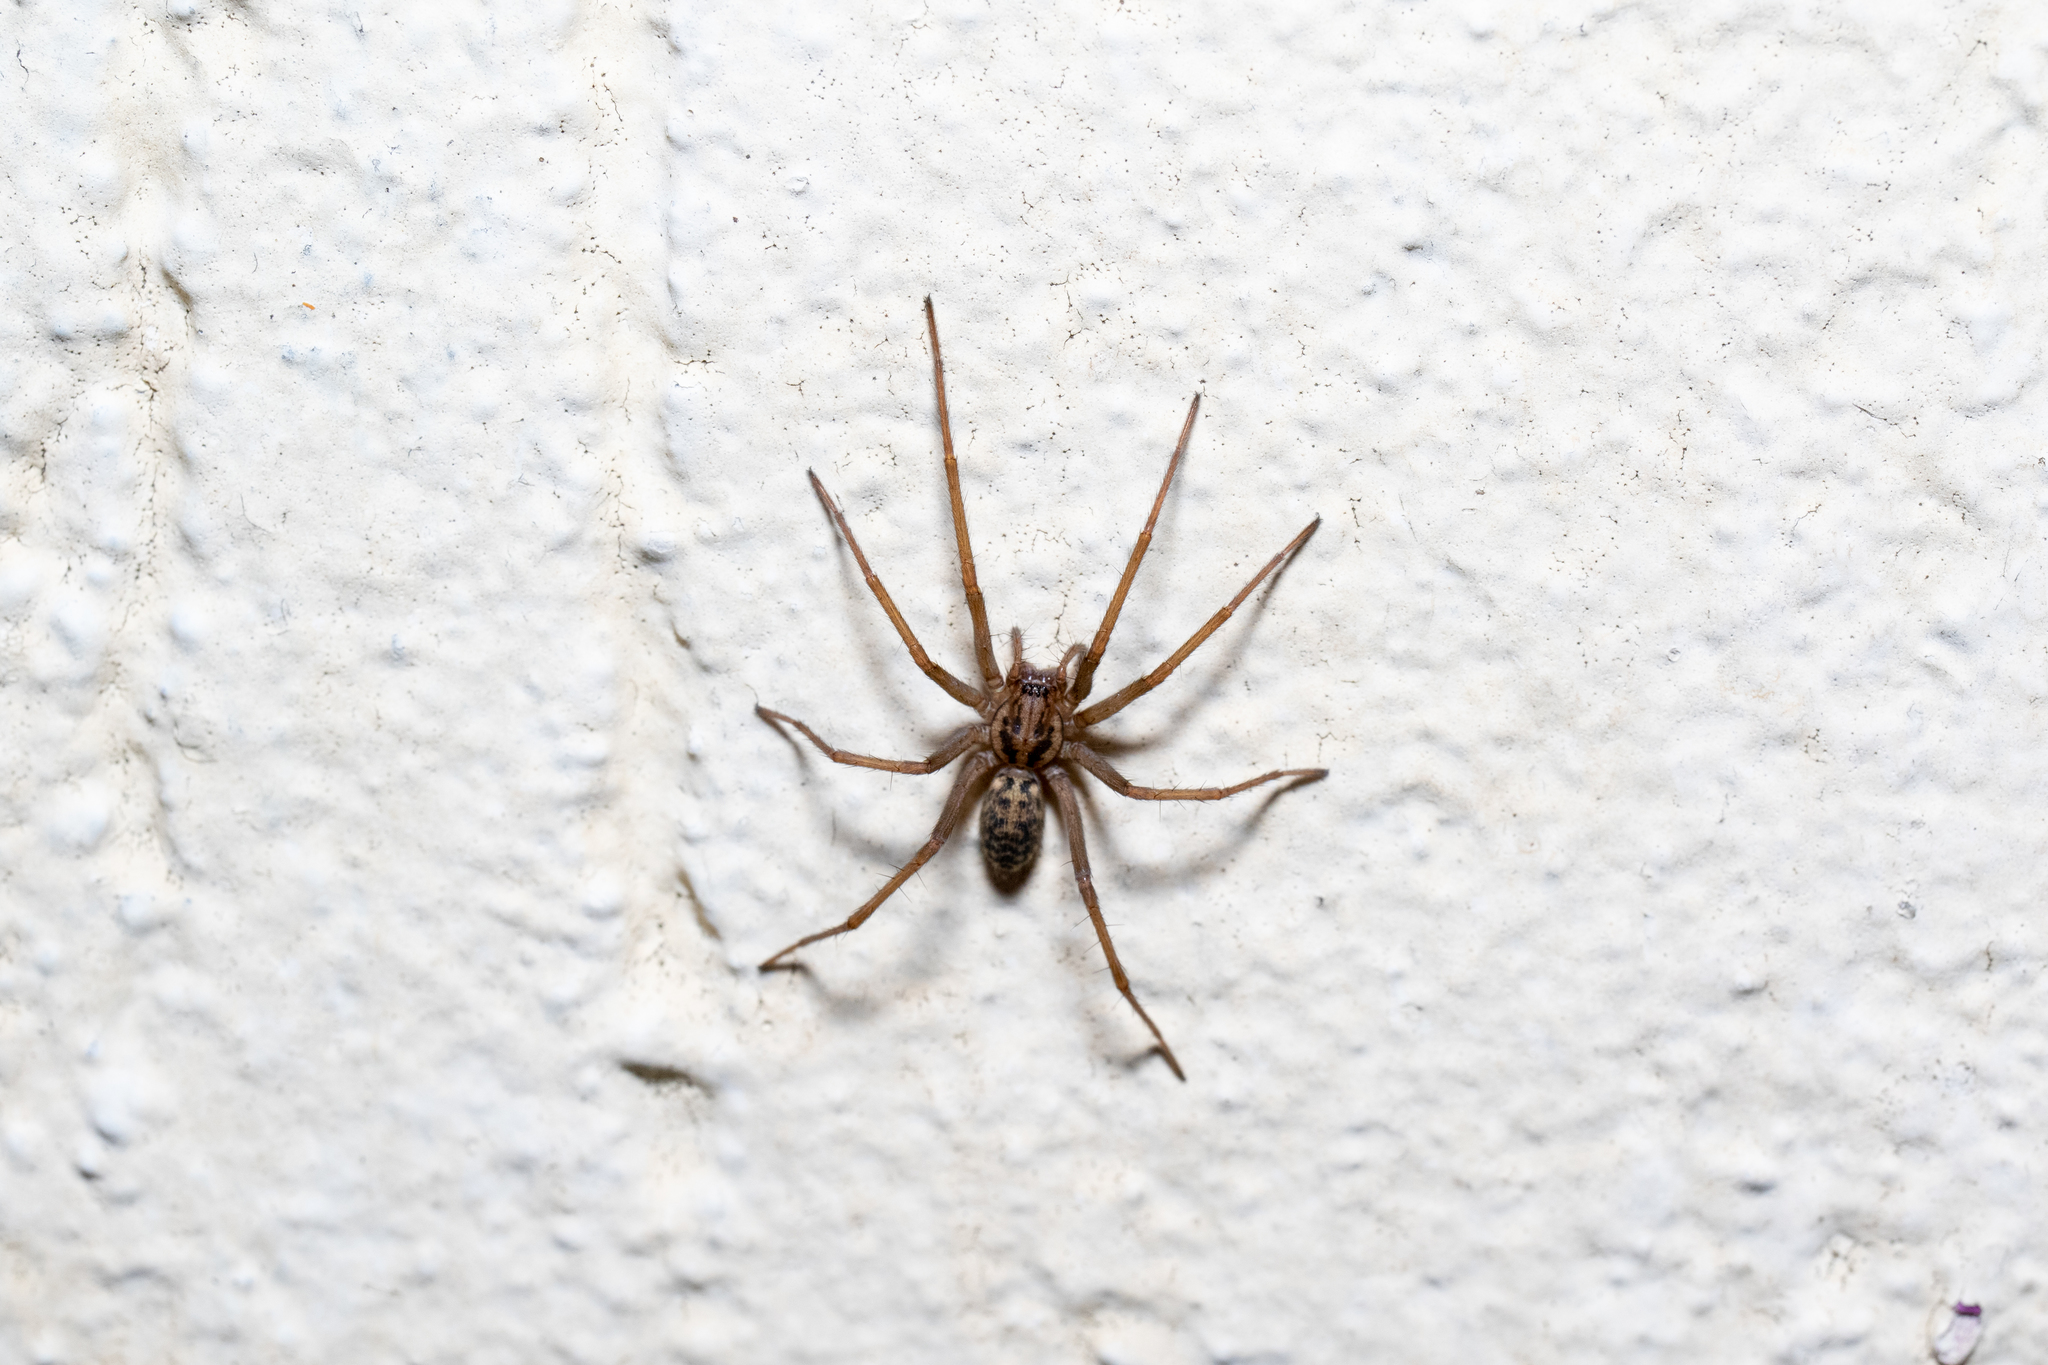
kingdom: Animalia
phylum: Arthropoda
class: Arachnida
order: Araneae
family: Agelenidae
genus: Eratigena
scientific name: Eratigena
